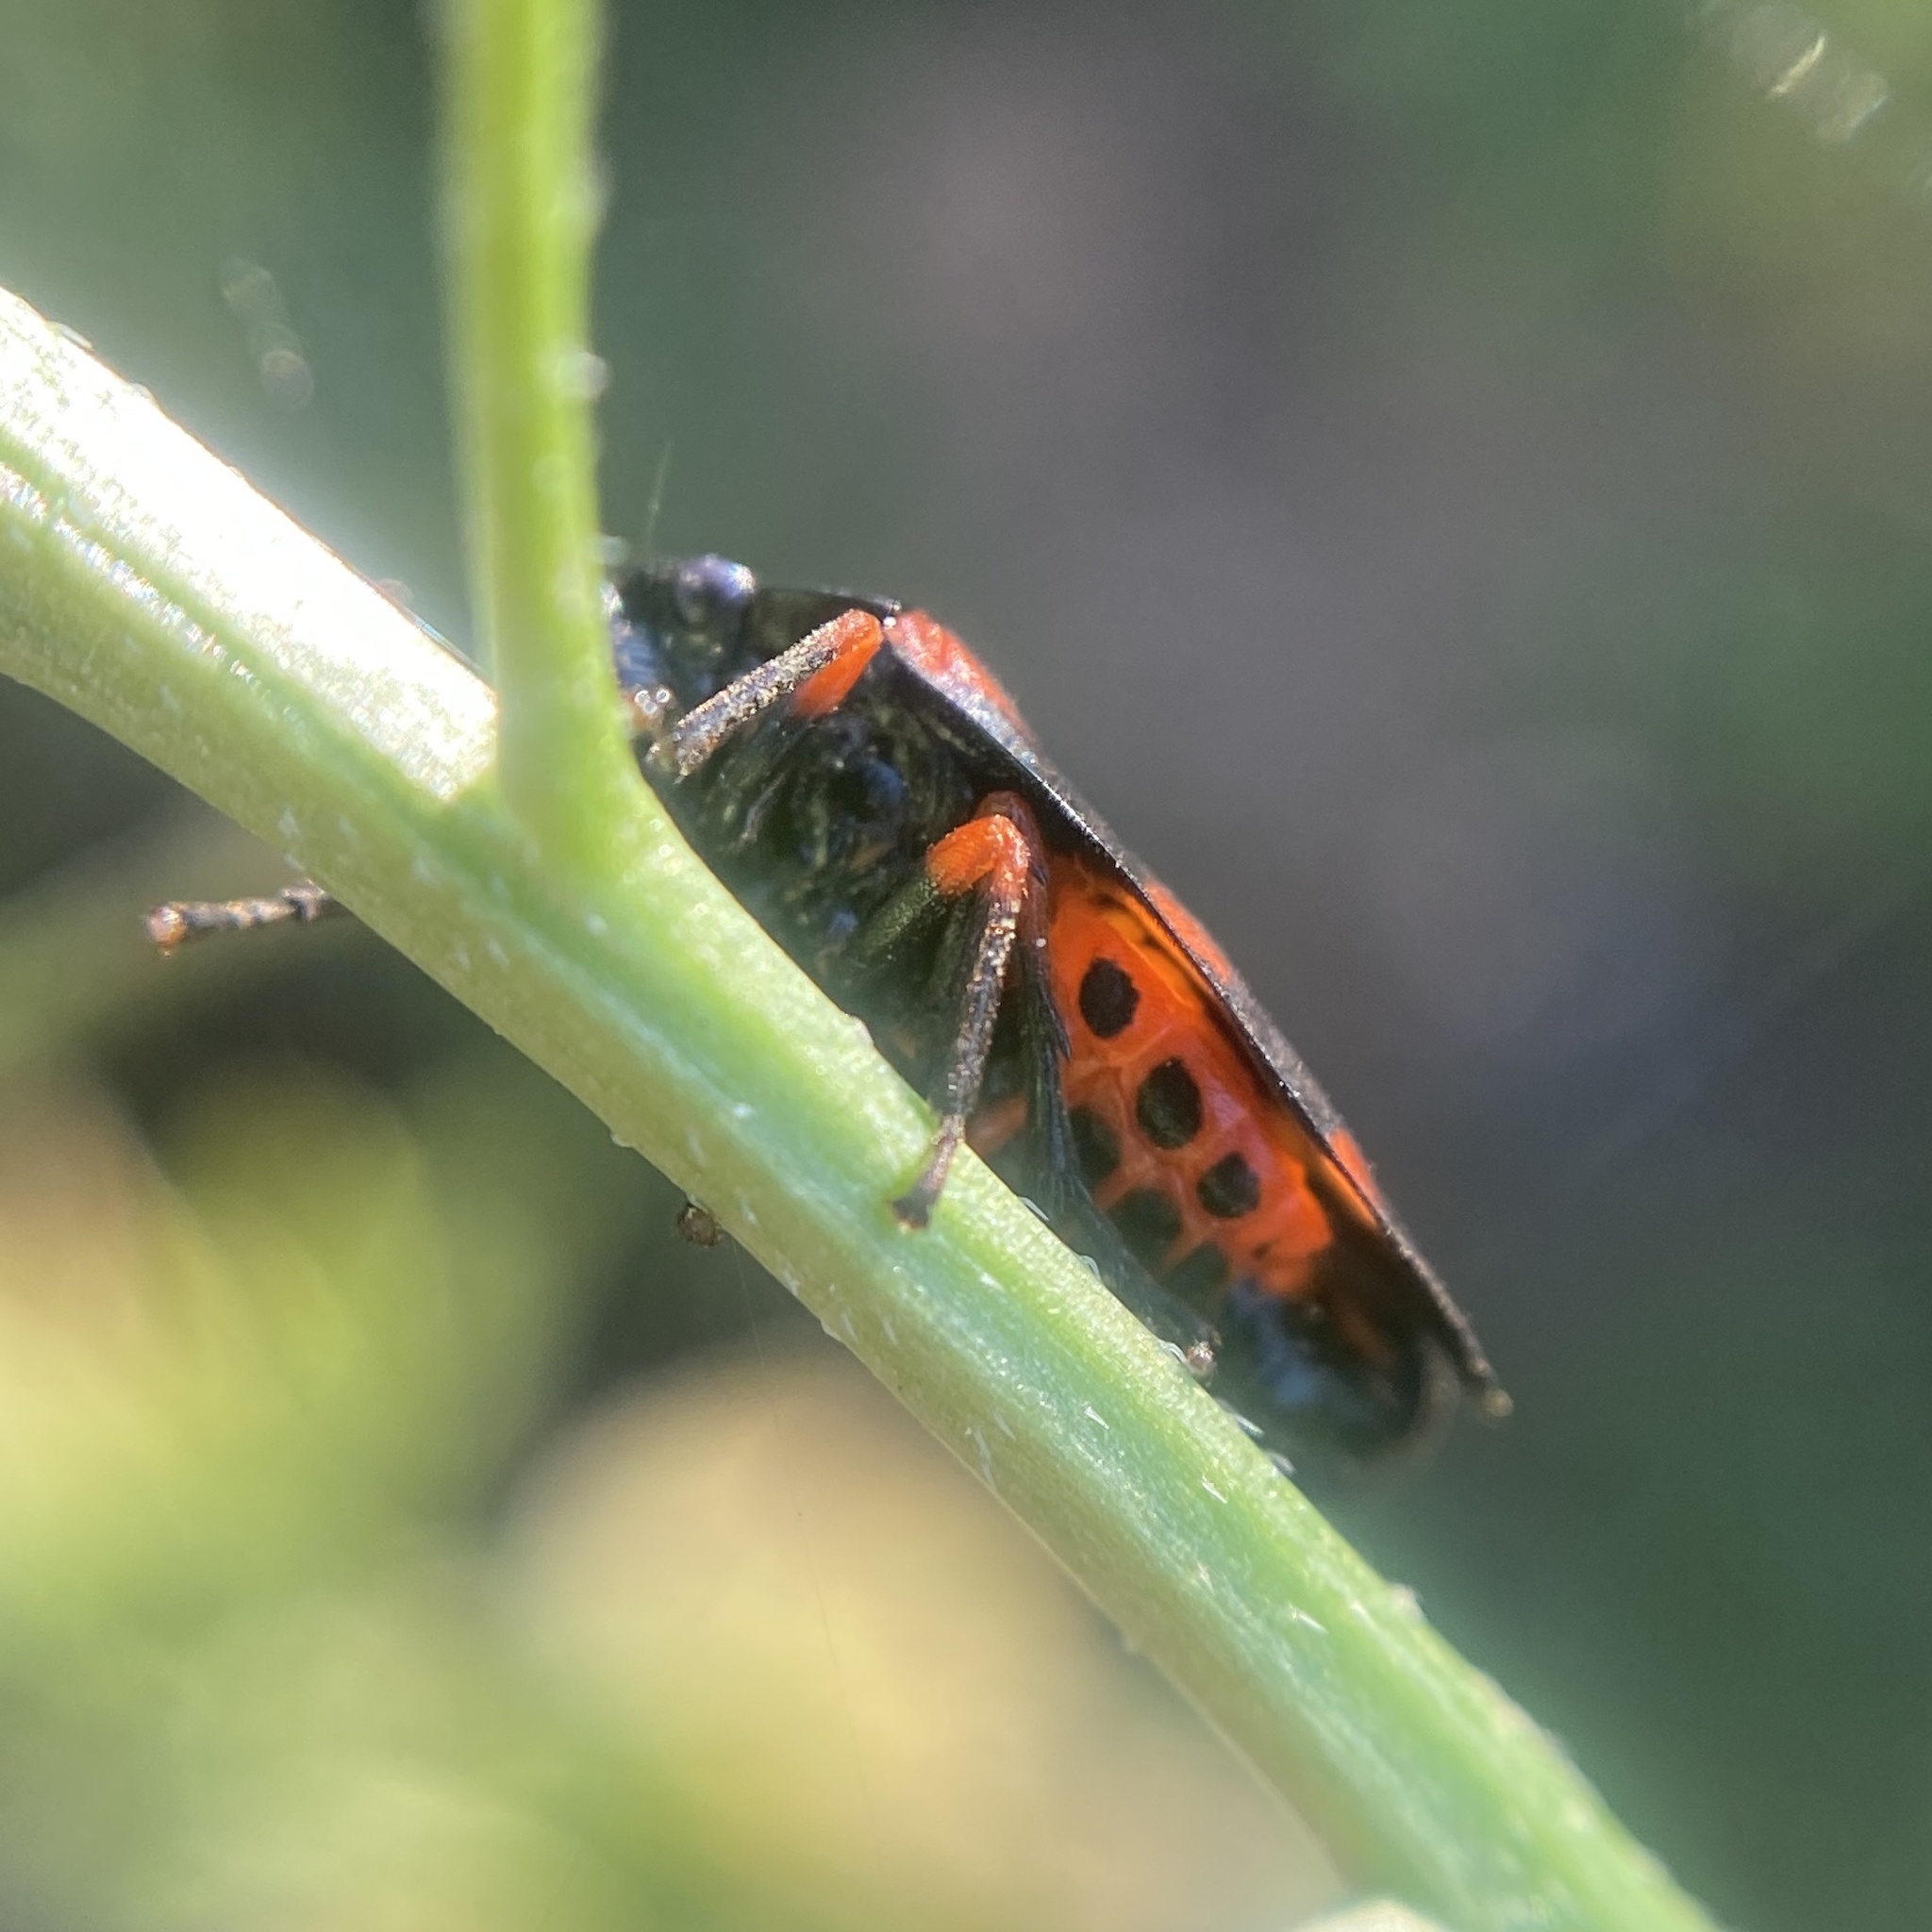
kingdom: Animalia
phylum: Arthropoda
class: Insecta
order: Hemiptera
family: Cercopidae
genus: Cercopis
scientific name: Cercopis intermedia
